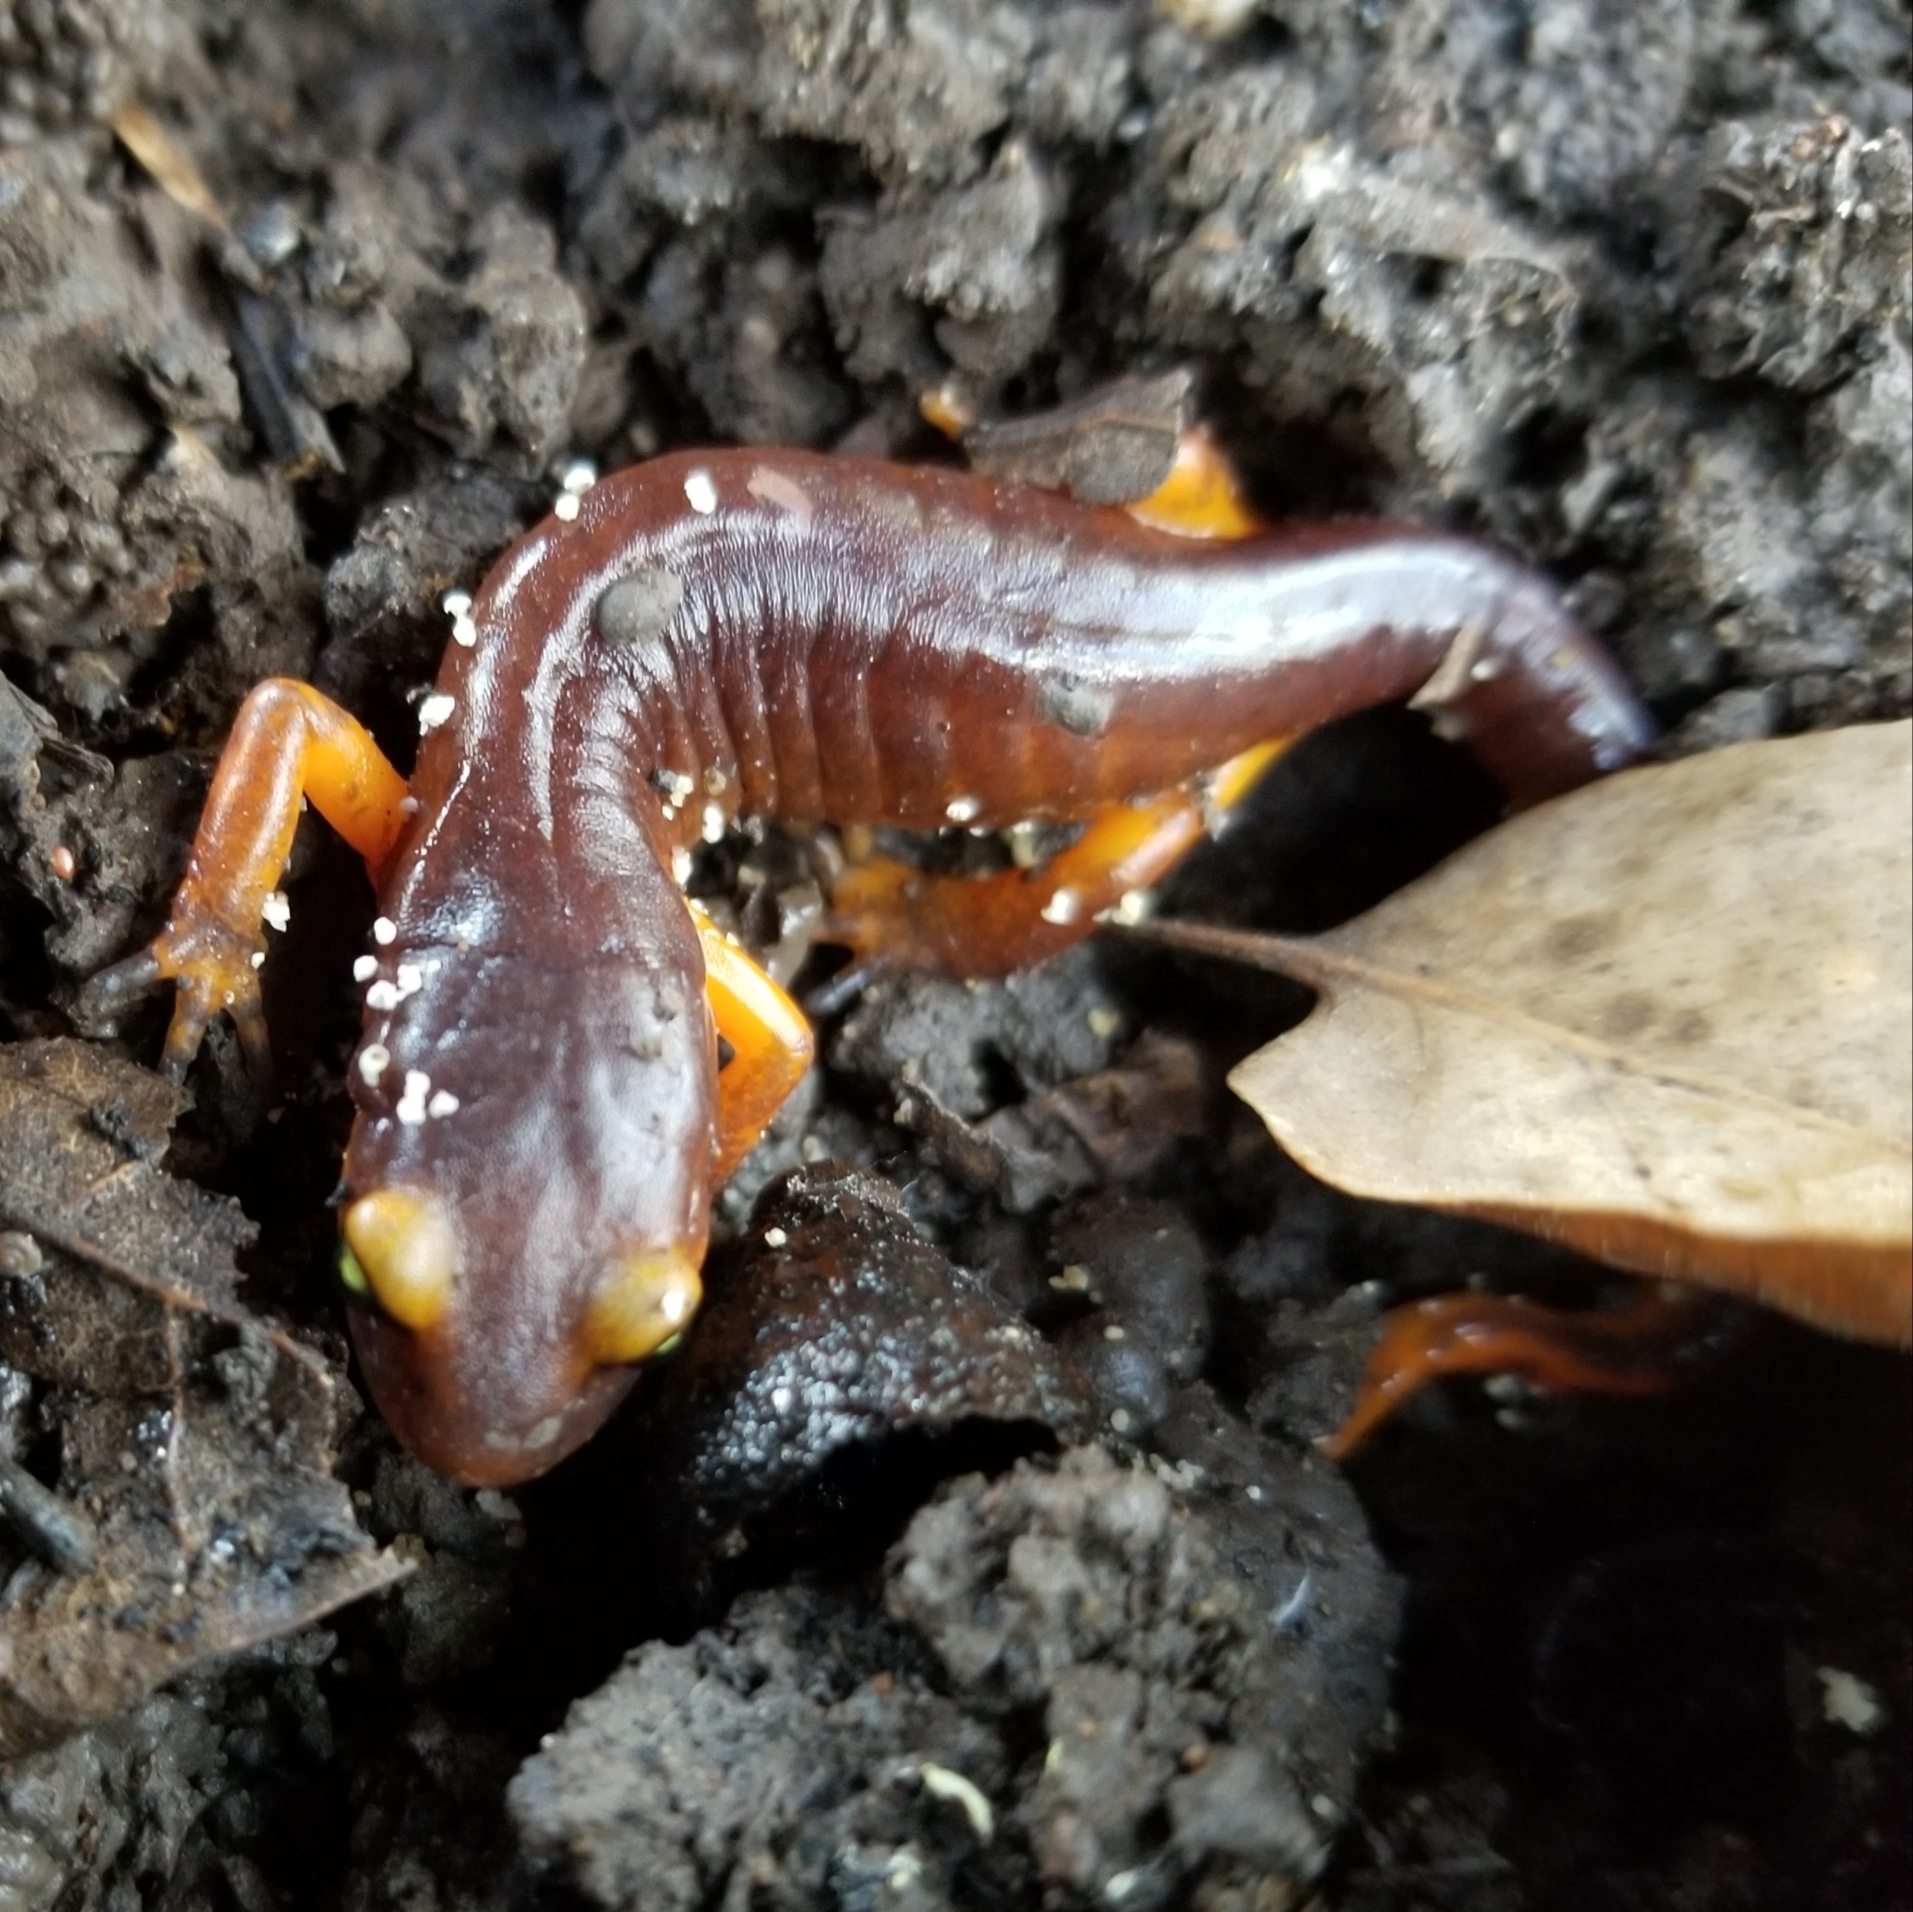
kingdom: Animalia
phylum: Chordata
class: Amphibia
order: Caudata
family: Plethodontidae
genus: Ensatina
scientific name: Ensatina eschscholtzii
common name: Ensatina
